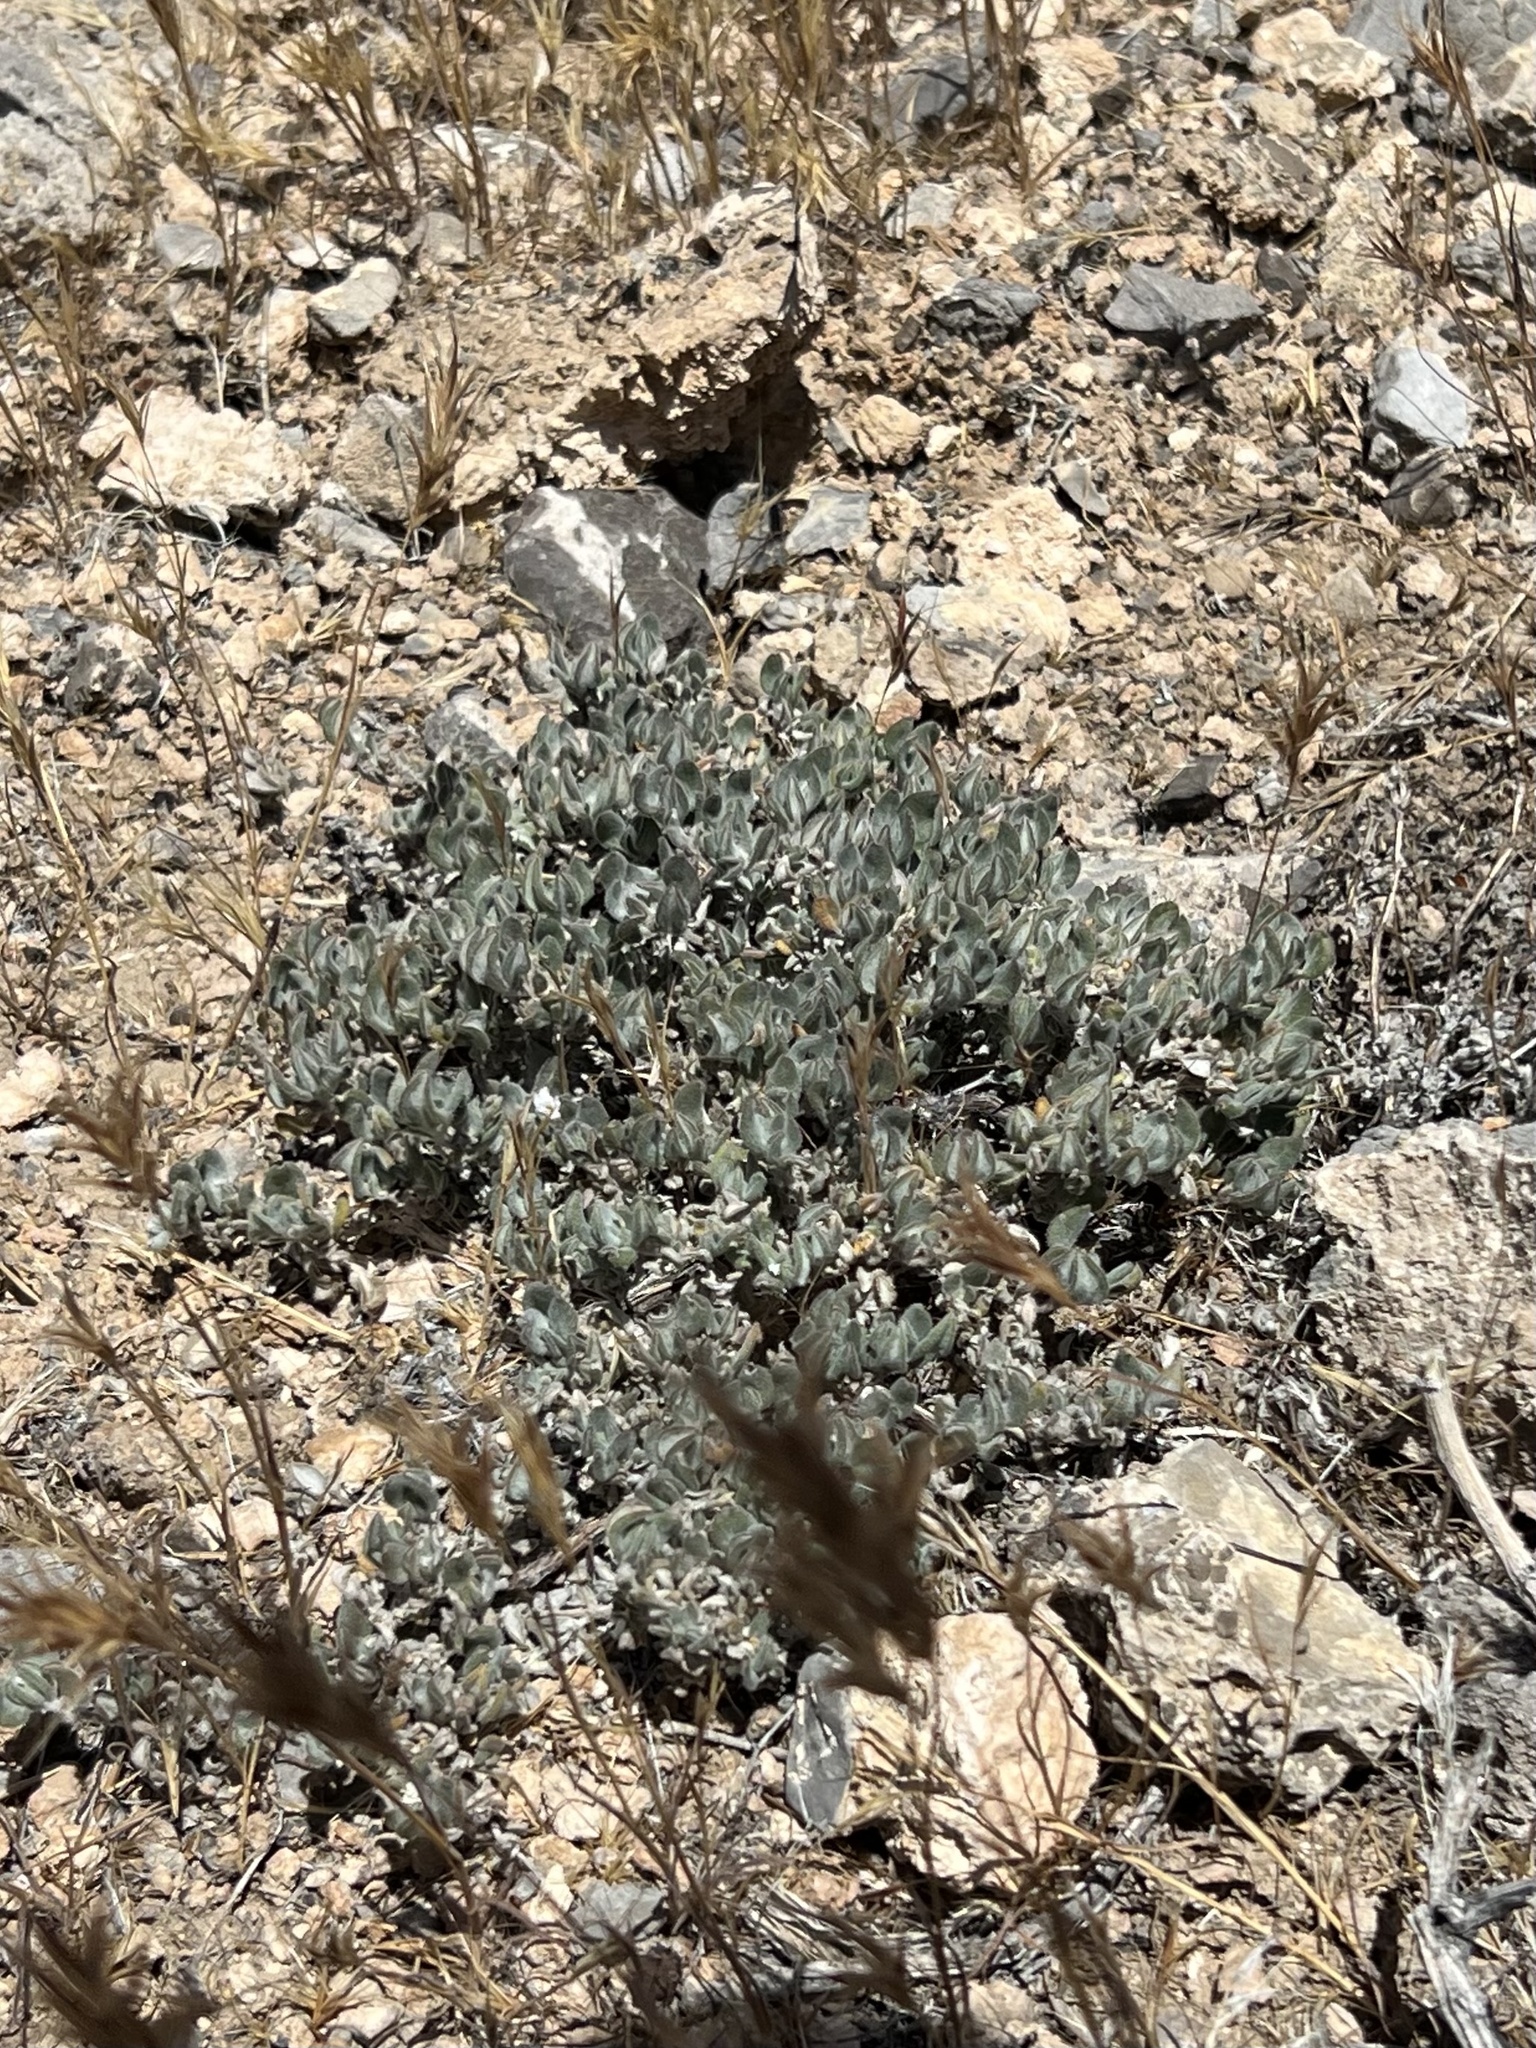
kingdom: Plantae
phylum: Tracheophyta
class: Magnoliopsida
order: Boraginales
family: Ehretiaceae
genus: Tiquilia
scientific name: Tiquilia canescens
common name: Hairy tiquilia
